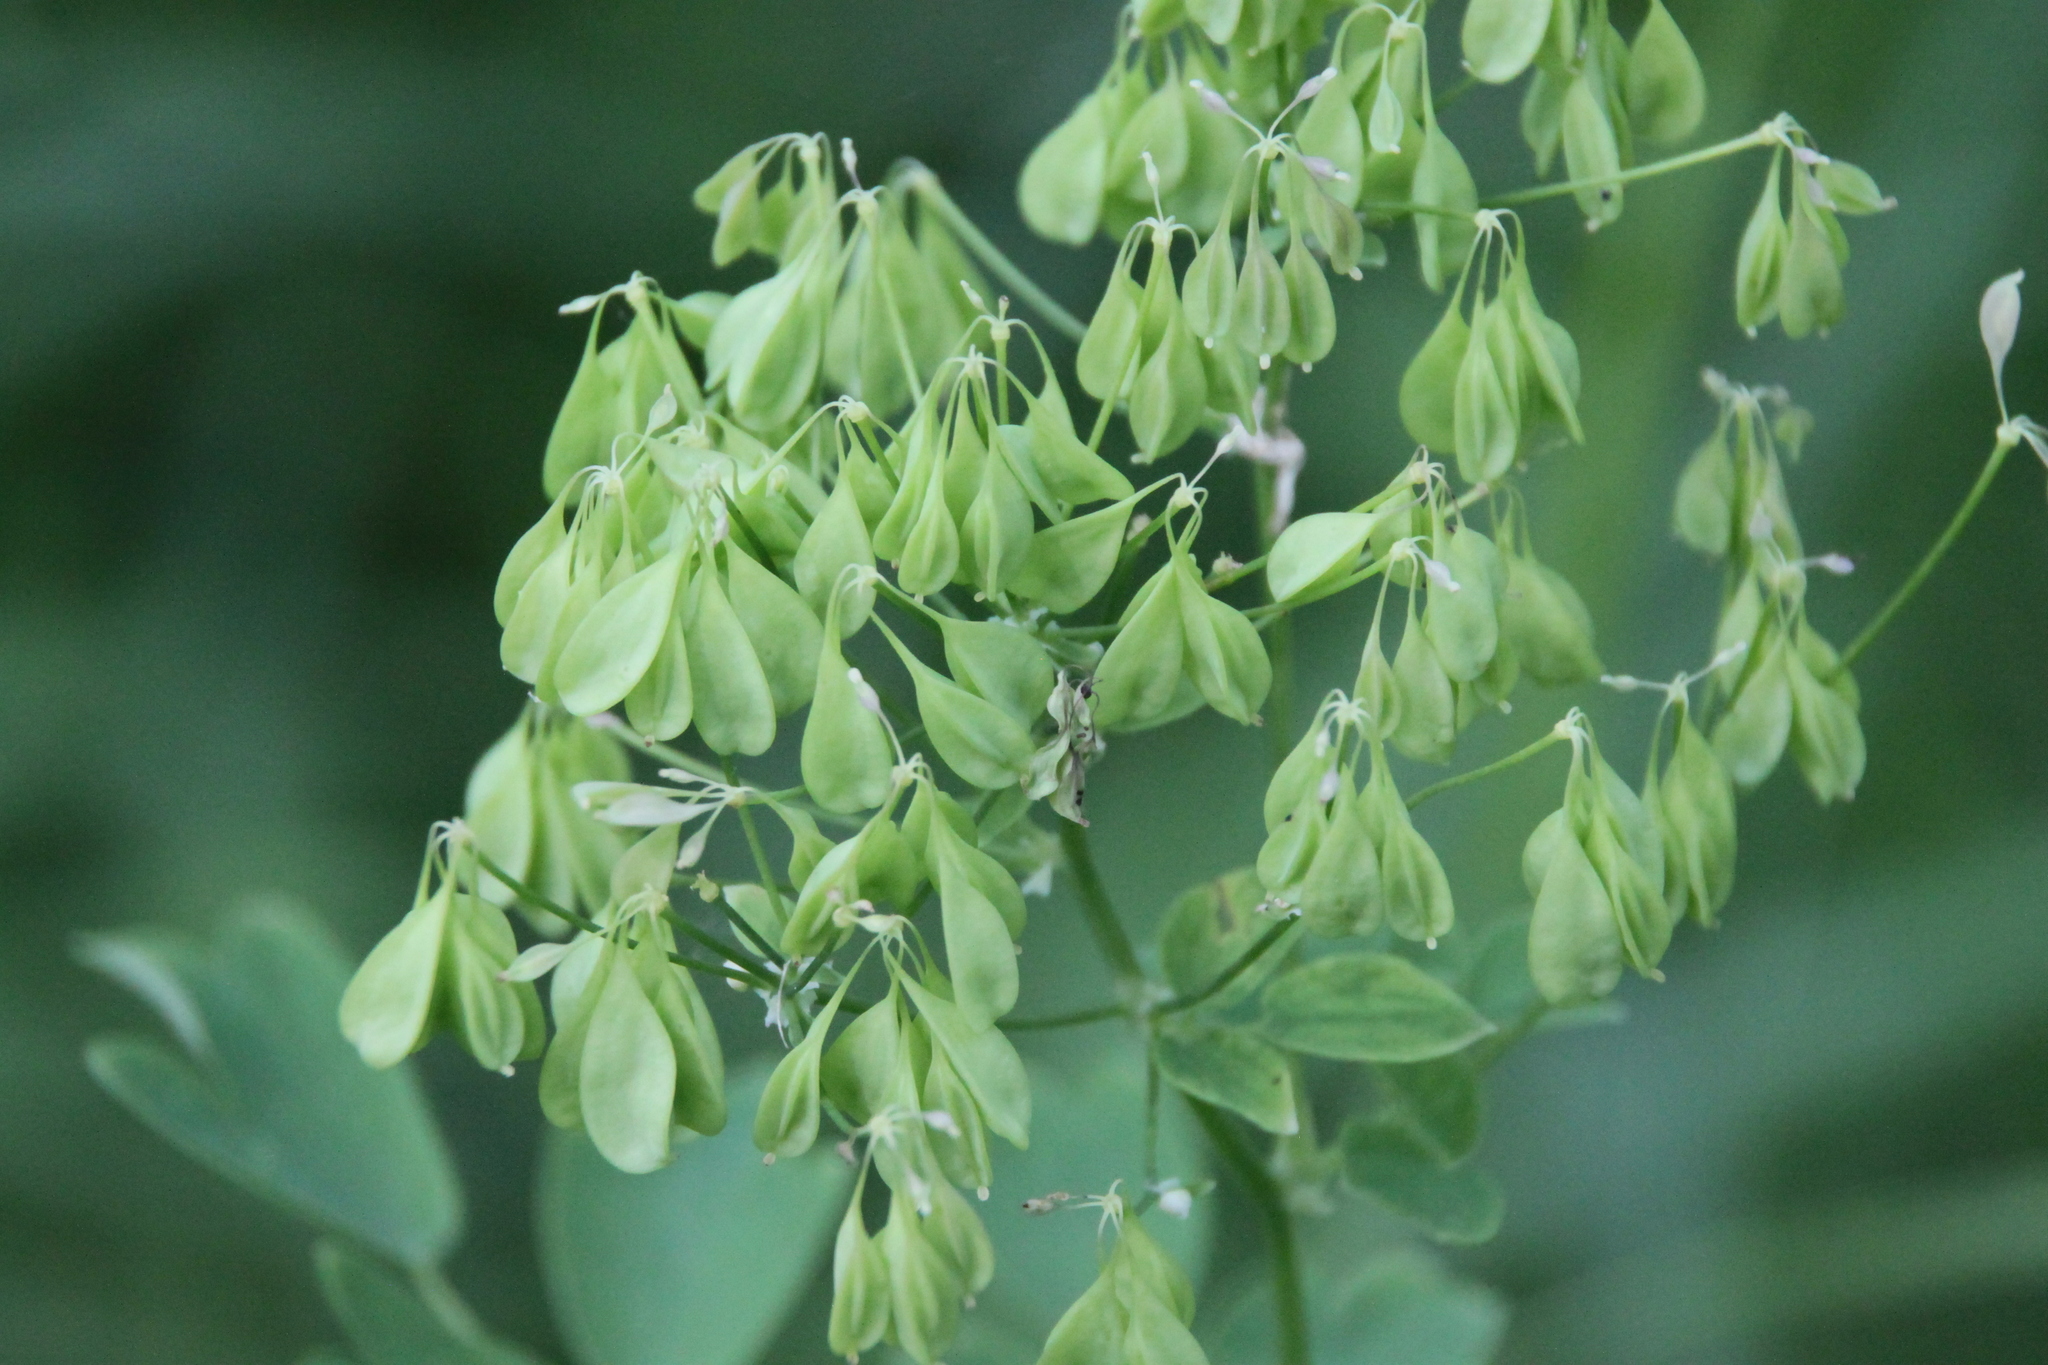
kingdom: Plantae
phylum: Tracheophyta
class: Magnoliopsida
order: Ranunculales
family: Ranunculaceae
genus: Thalictrum
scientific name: Thalictrum aquilegiifolium
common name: French meadow-rue
